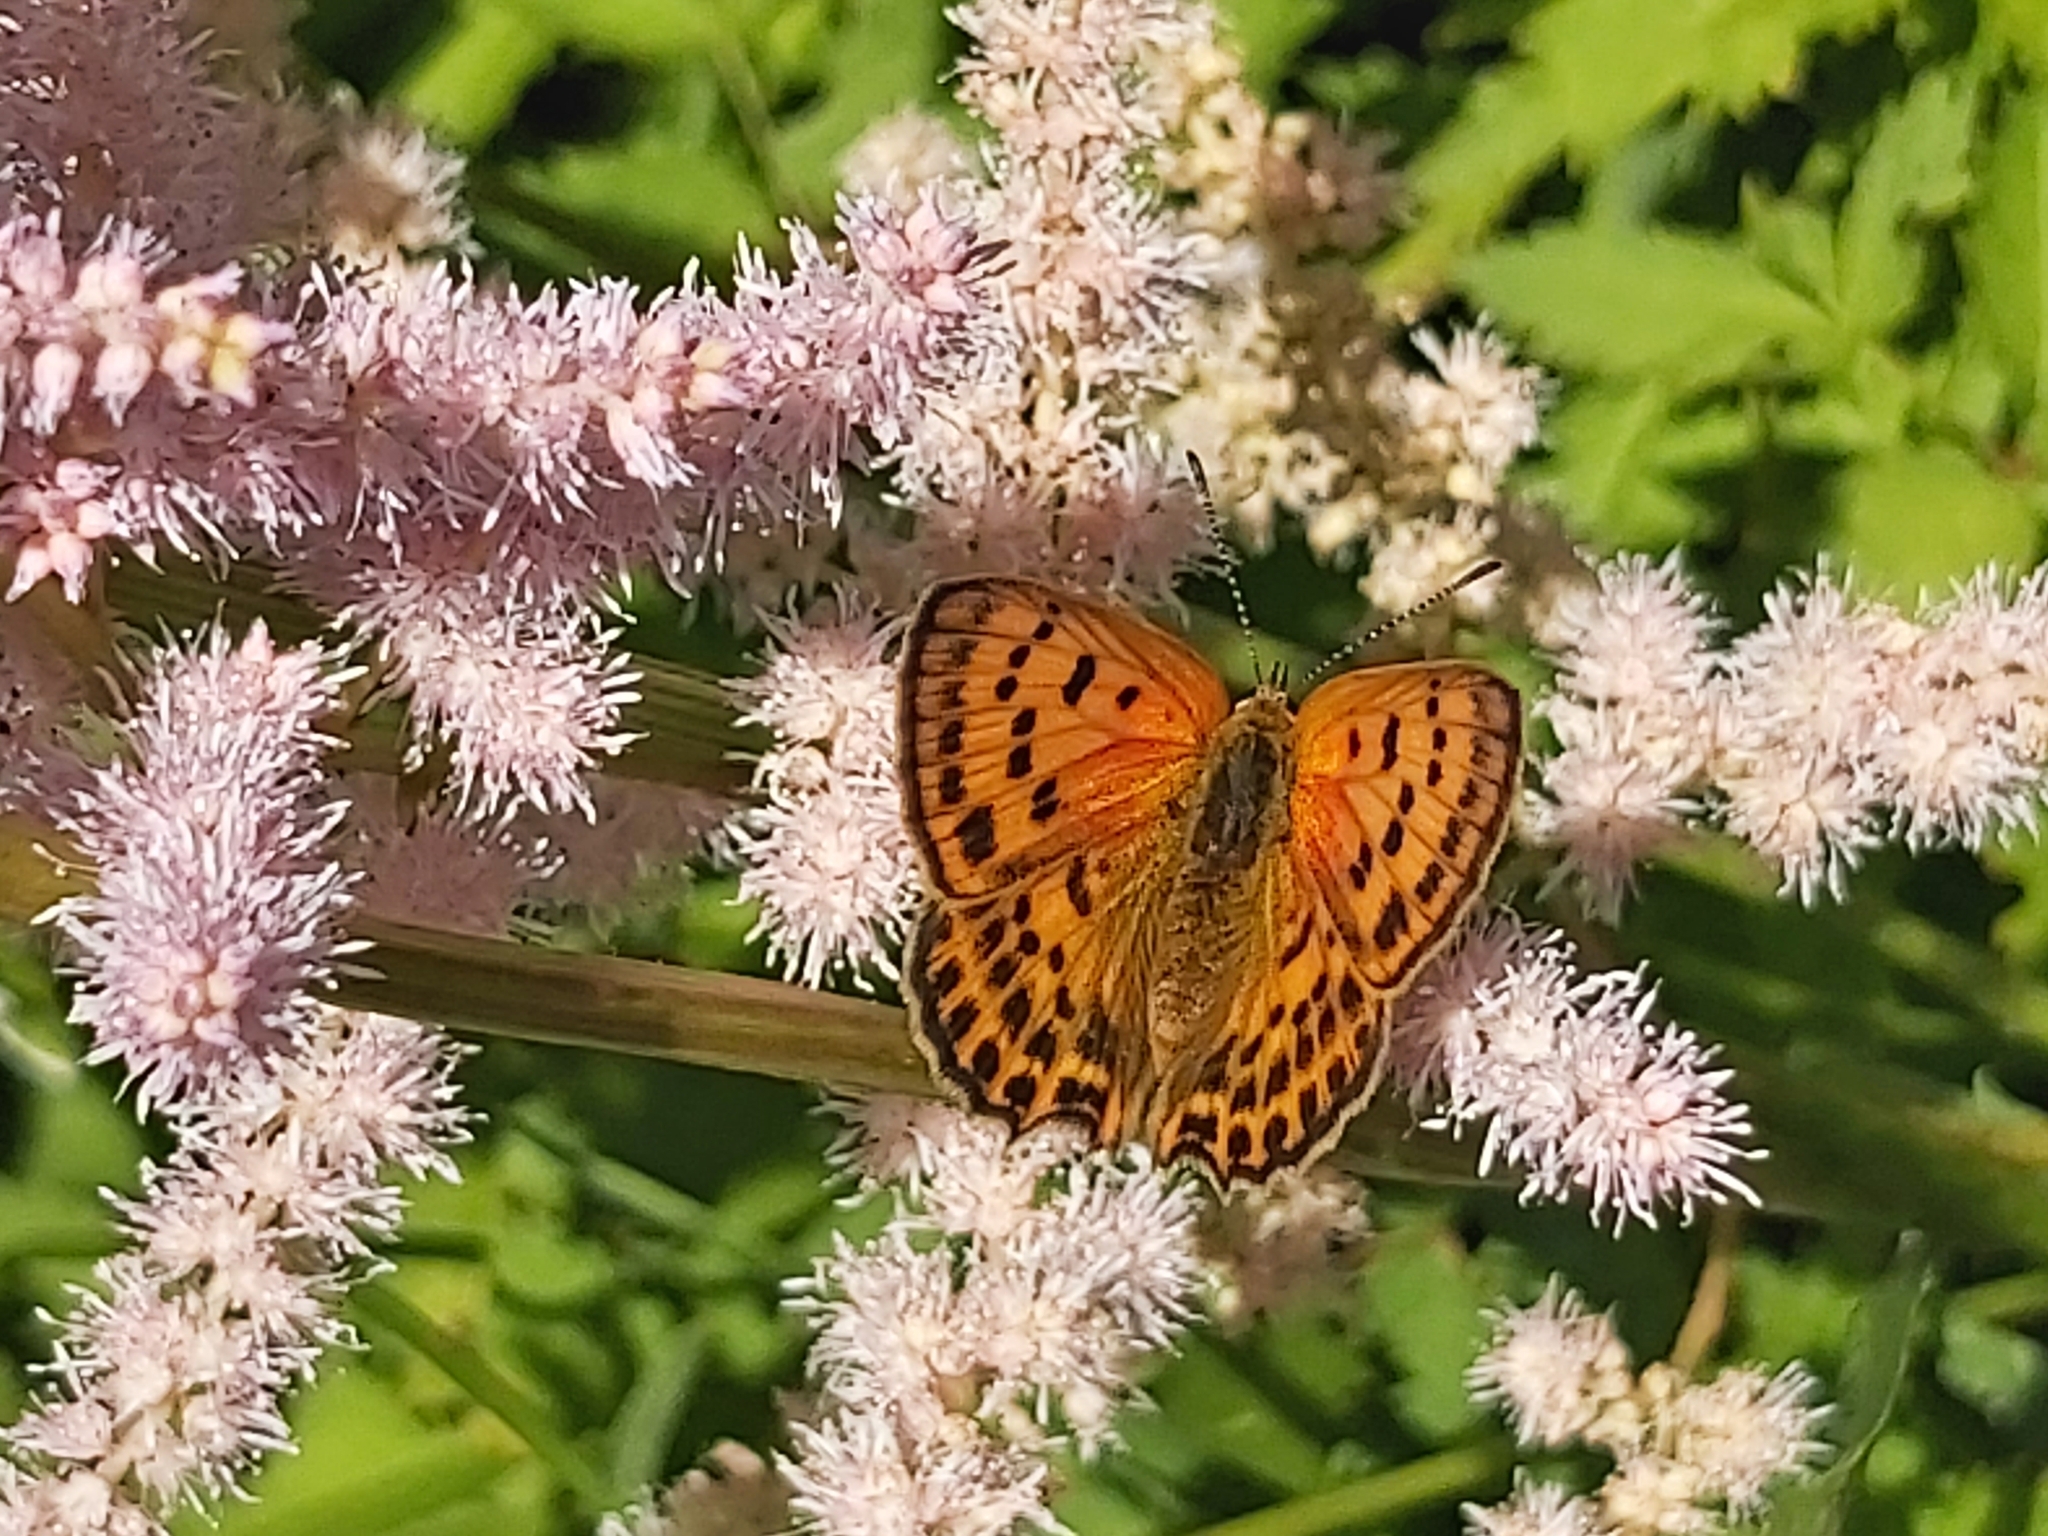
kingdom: Animalia
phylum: Arthropoda
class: Insecta
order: Lepidoptera
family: Lycaenidae
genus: Lycaena
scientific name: Lycaena virgaureae
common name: Scarce copper
